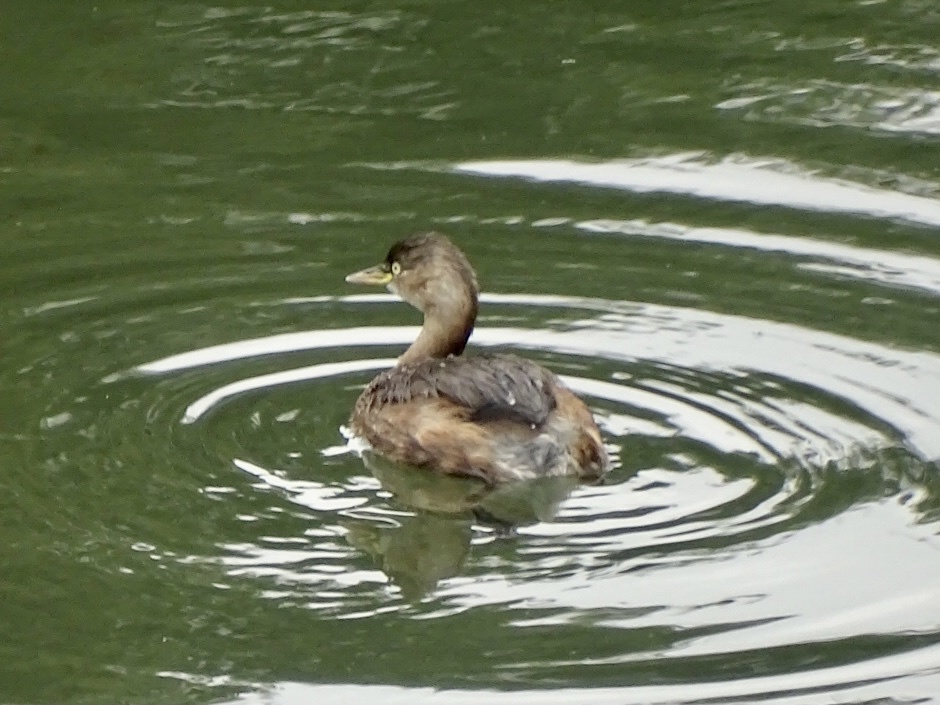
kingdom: Animalia
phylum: Chordata
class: Aves
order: Podicipediformes
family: Podicipedidae
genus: Tachybaptus
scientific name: Tachybaptus ruficollis
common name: Little grebe
